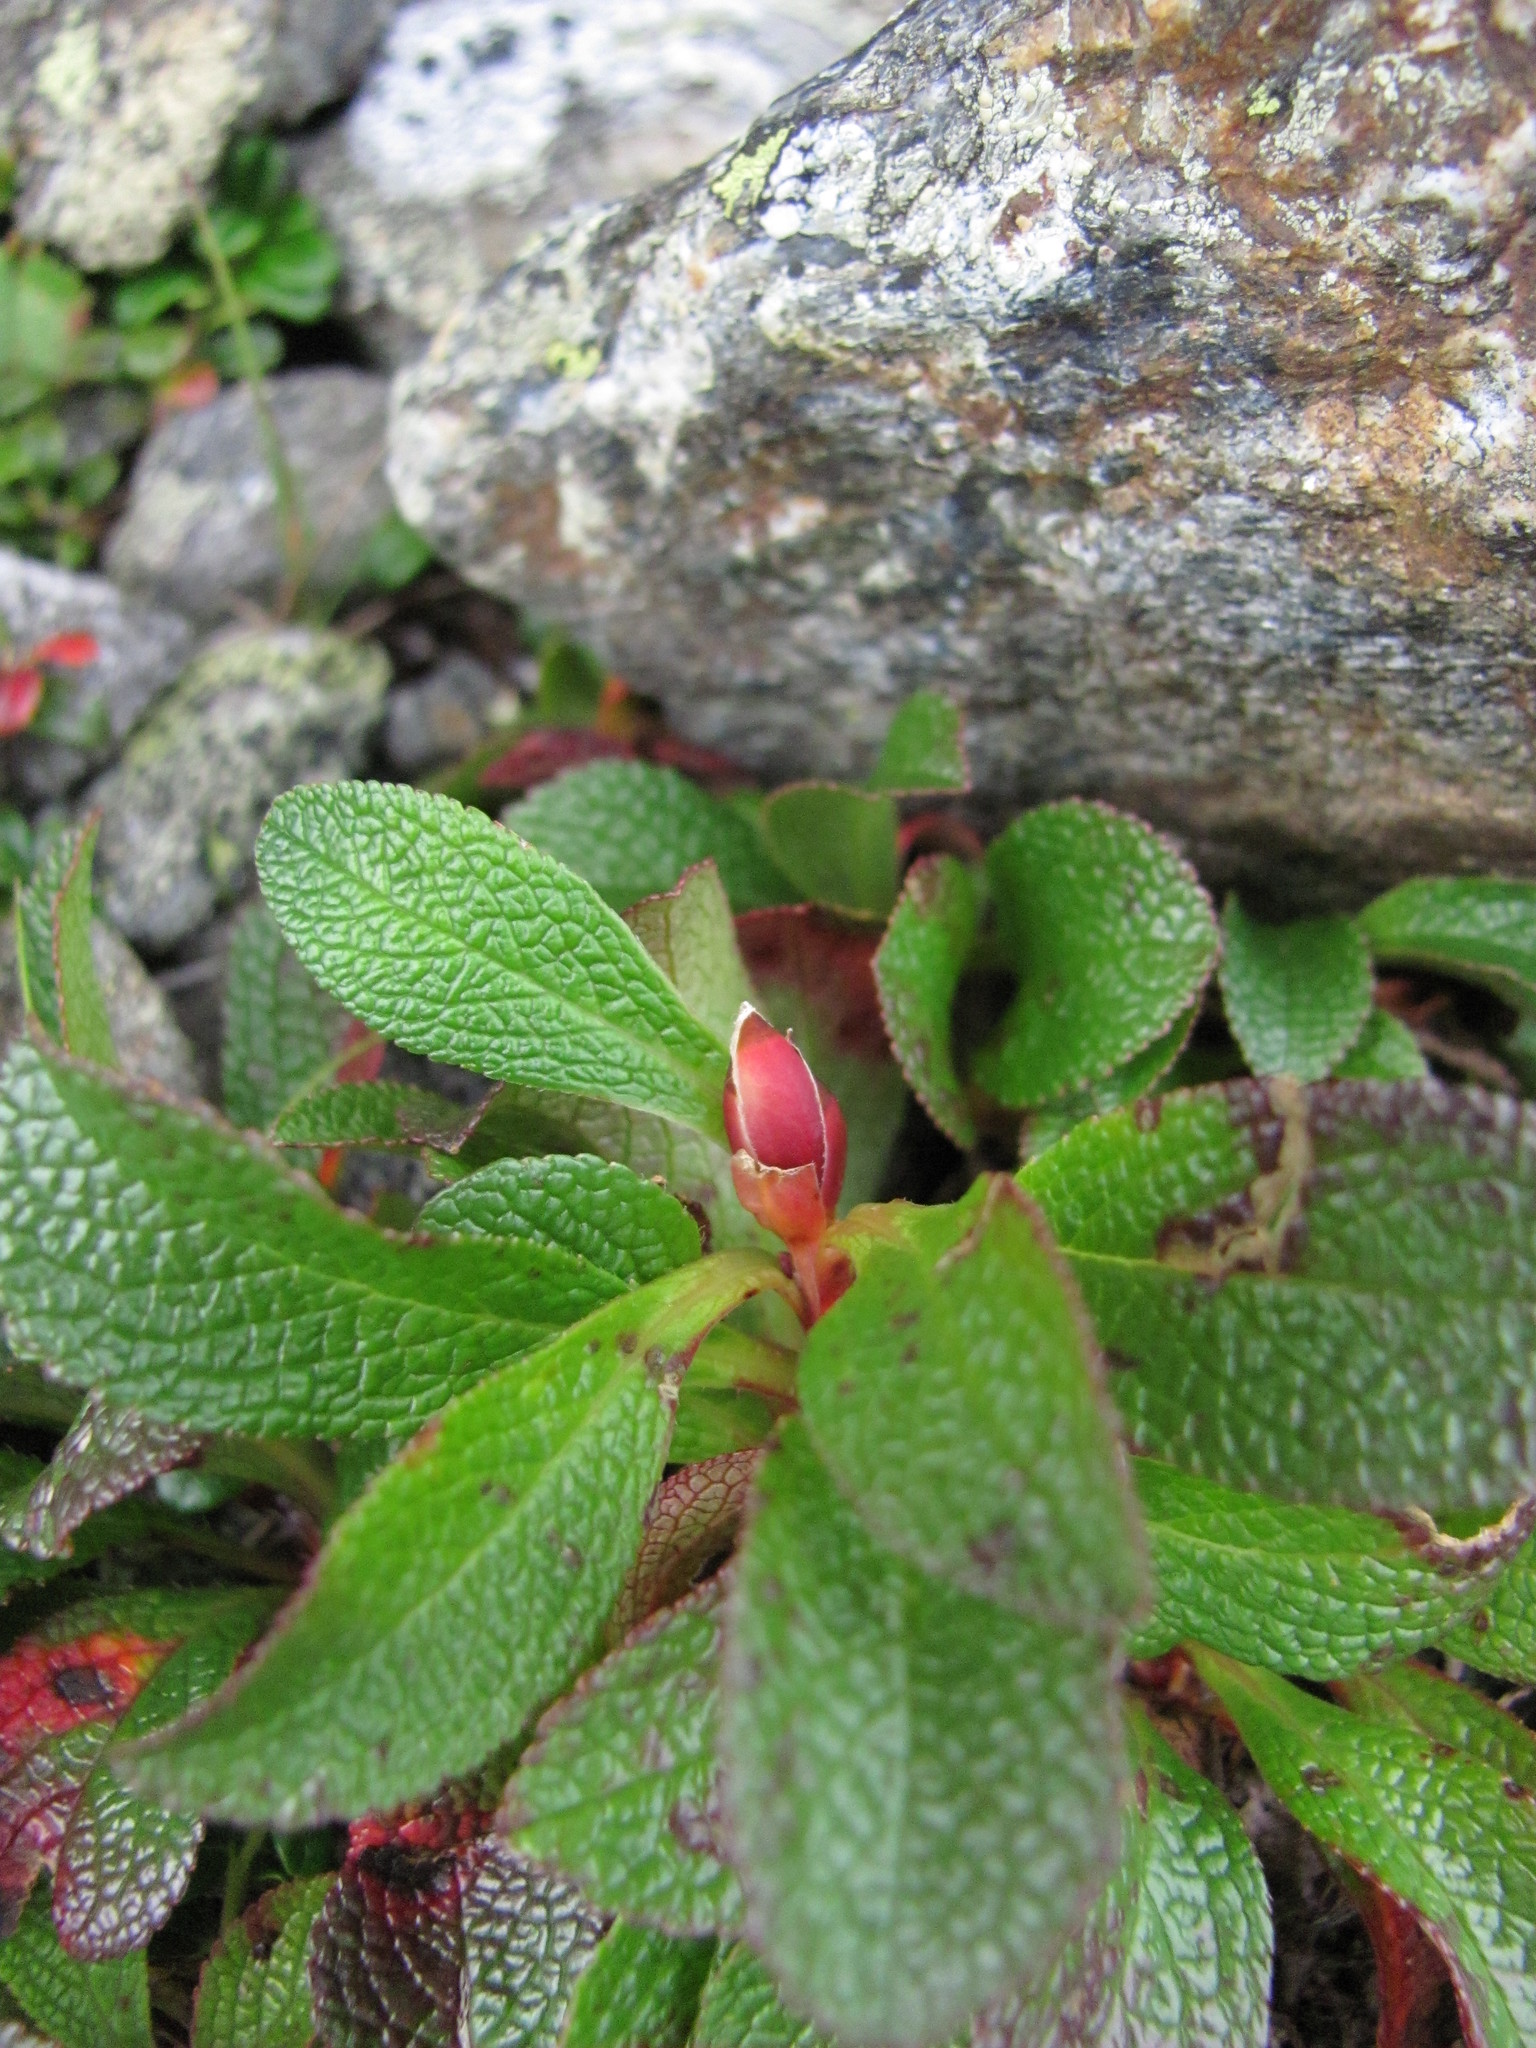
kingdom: Plantae
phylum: Tracheophyta
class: Magnoliopsida
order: Ericales
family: Ericaceae
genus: Arctostaphylos
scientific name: Arctostaphylos alpinus
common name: Alpine bearberry
